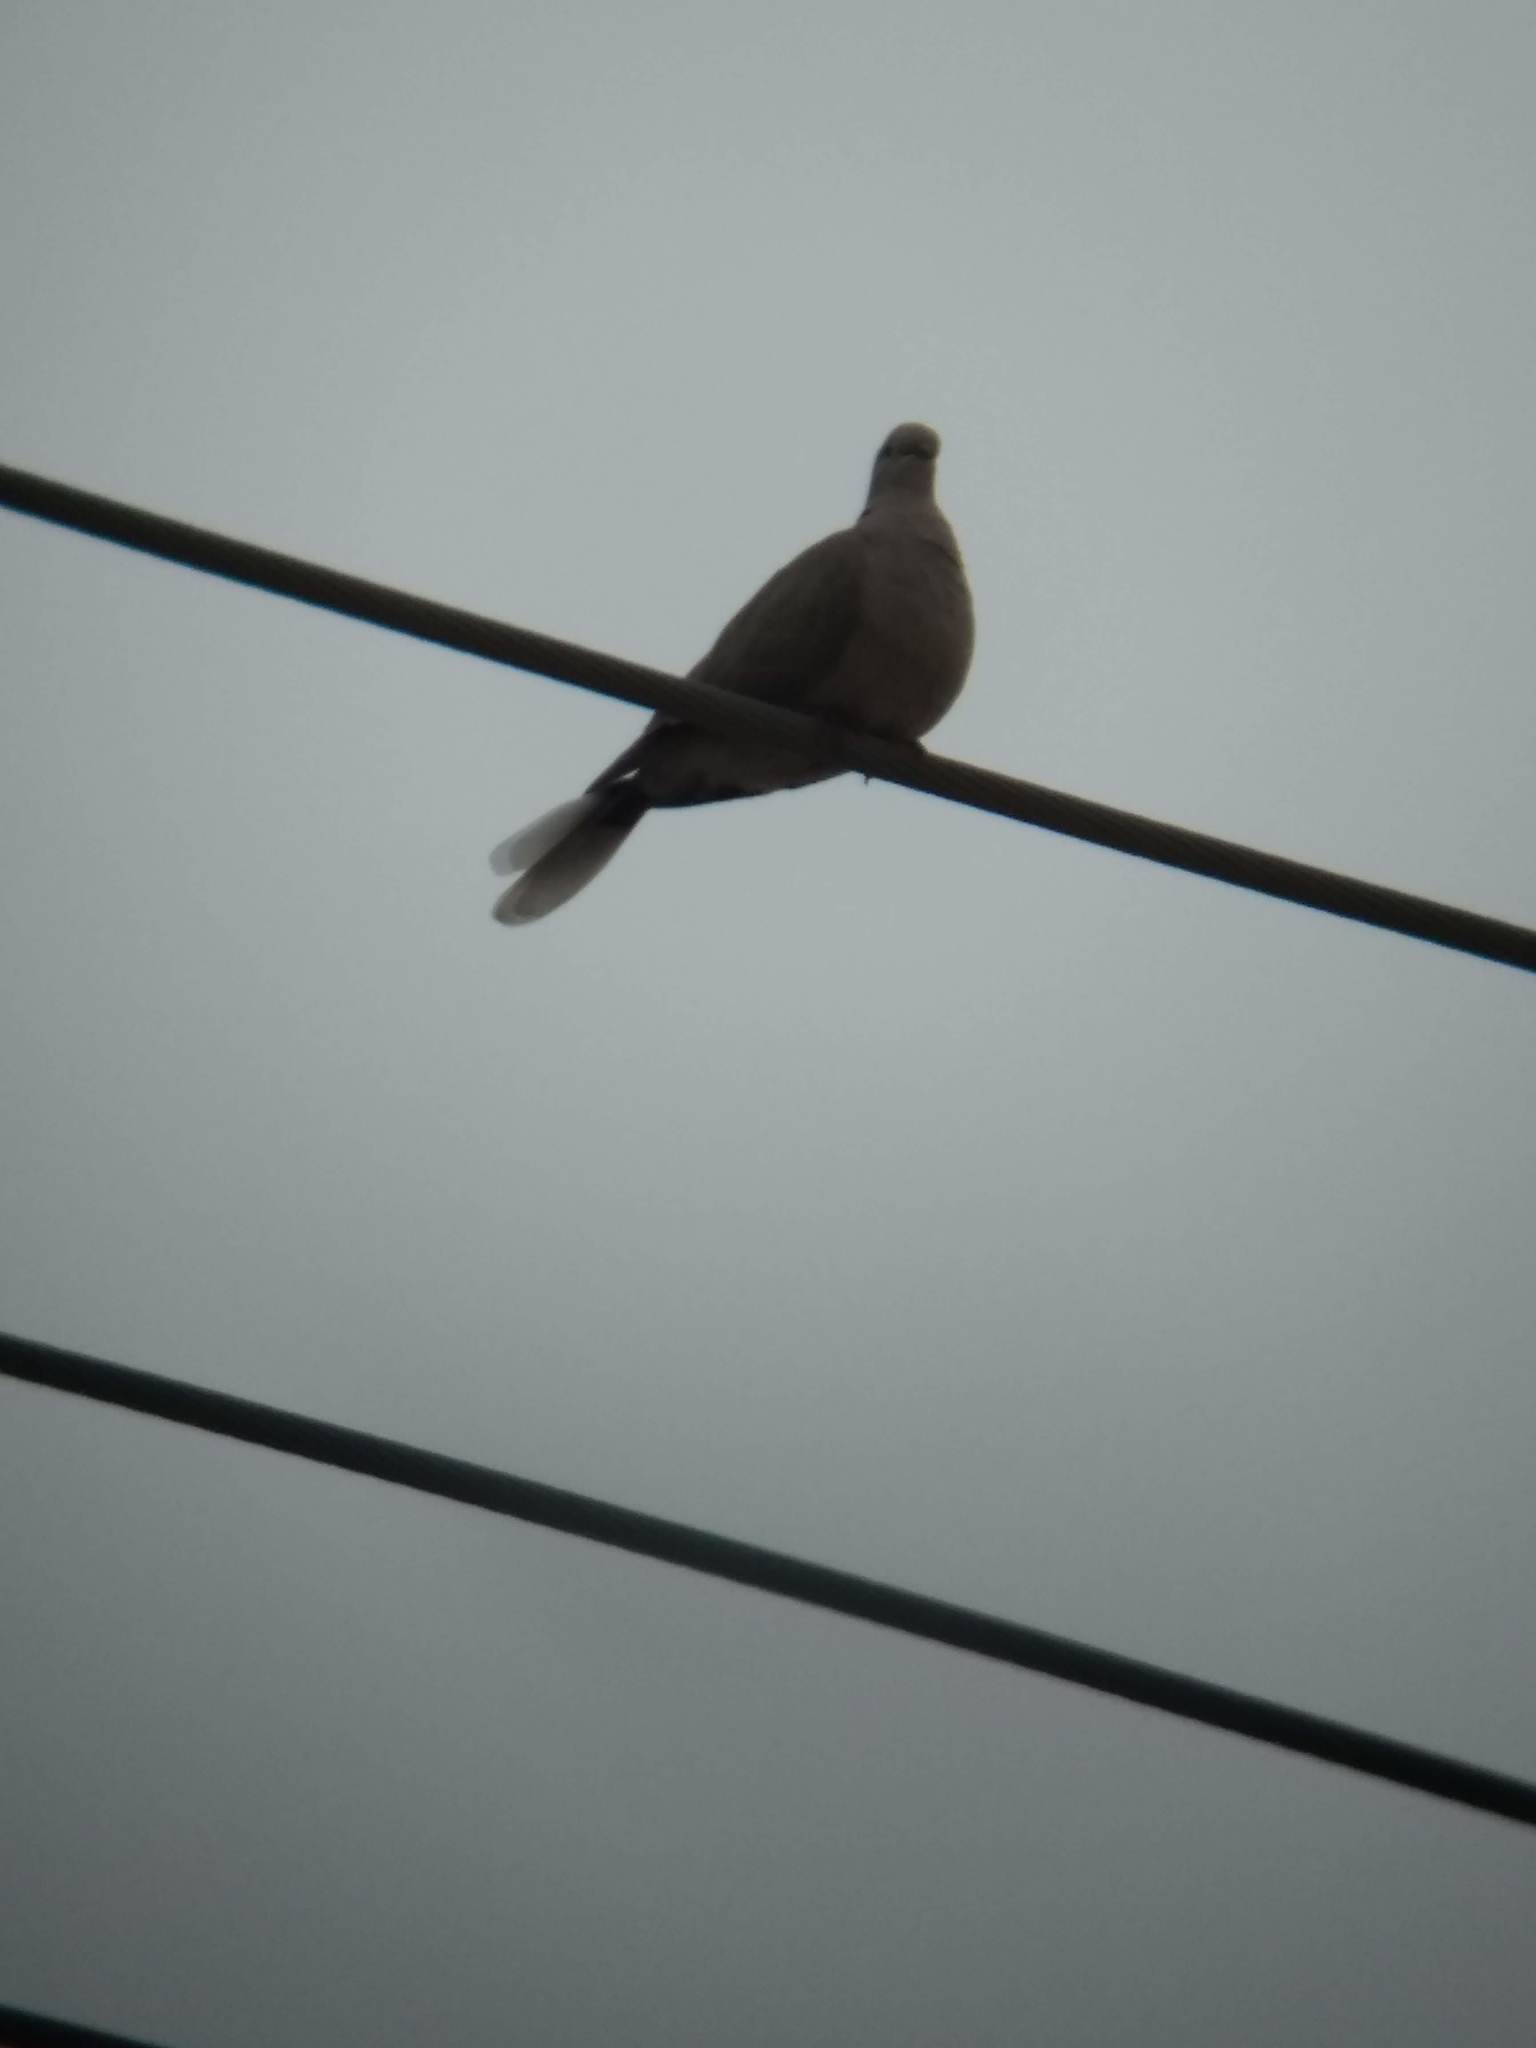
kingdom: Animalia
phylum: Chordata
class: Aves
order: Columbiformes
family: Columbidae
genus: Streptopelia
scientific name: Streptopelia decaocto
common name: Eurasian collared dove
